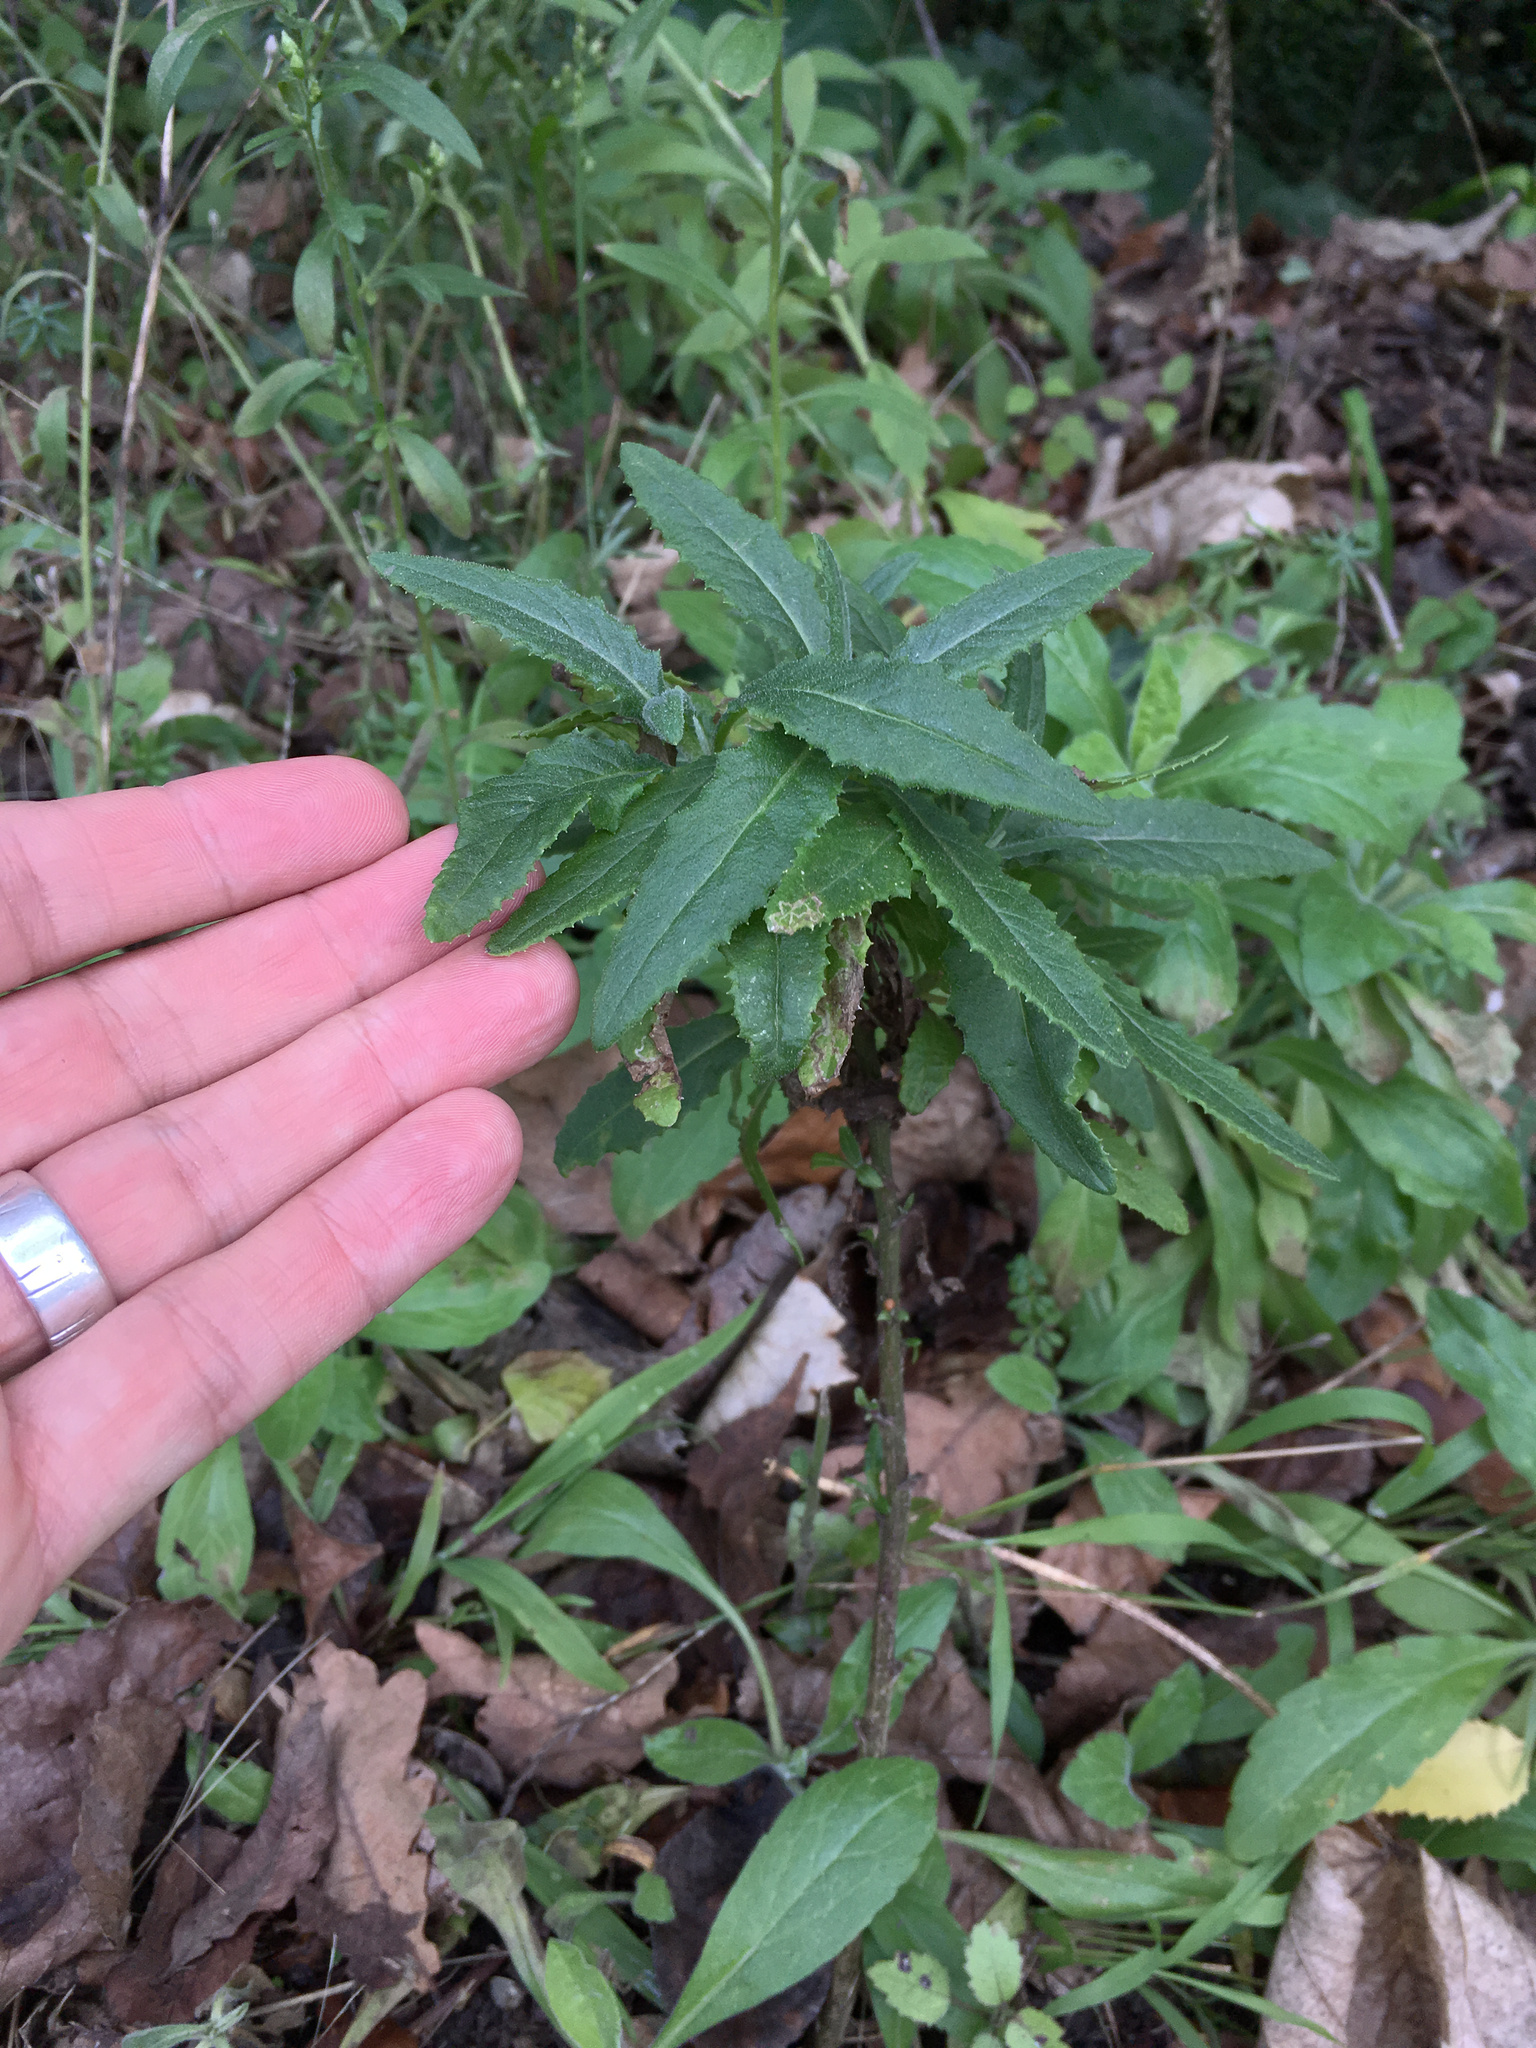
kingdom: Plantae
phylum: Tracheophyta
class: Magnoliopsida
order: Asterales
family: Asteraceae
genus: Senecio
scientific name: Senecio minimus
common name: Toothed fireweed
